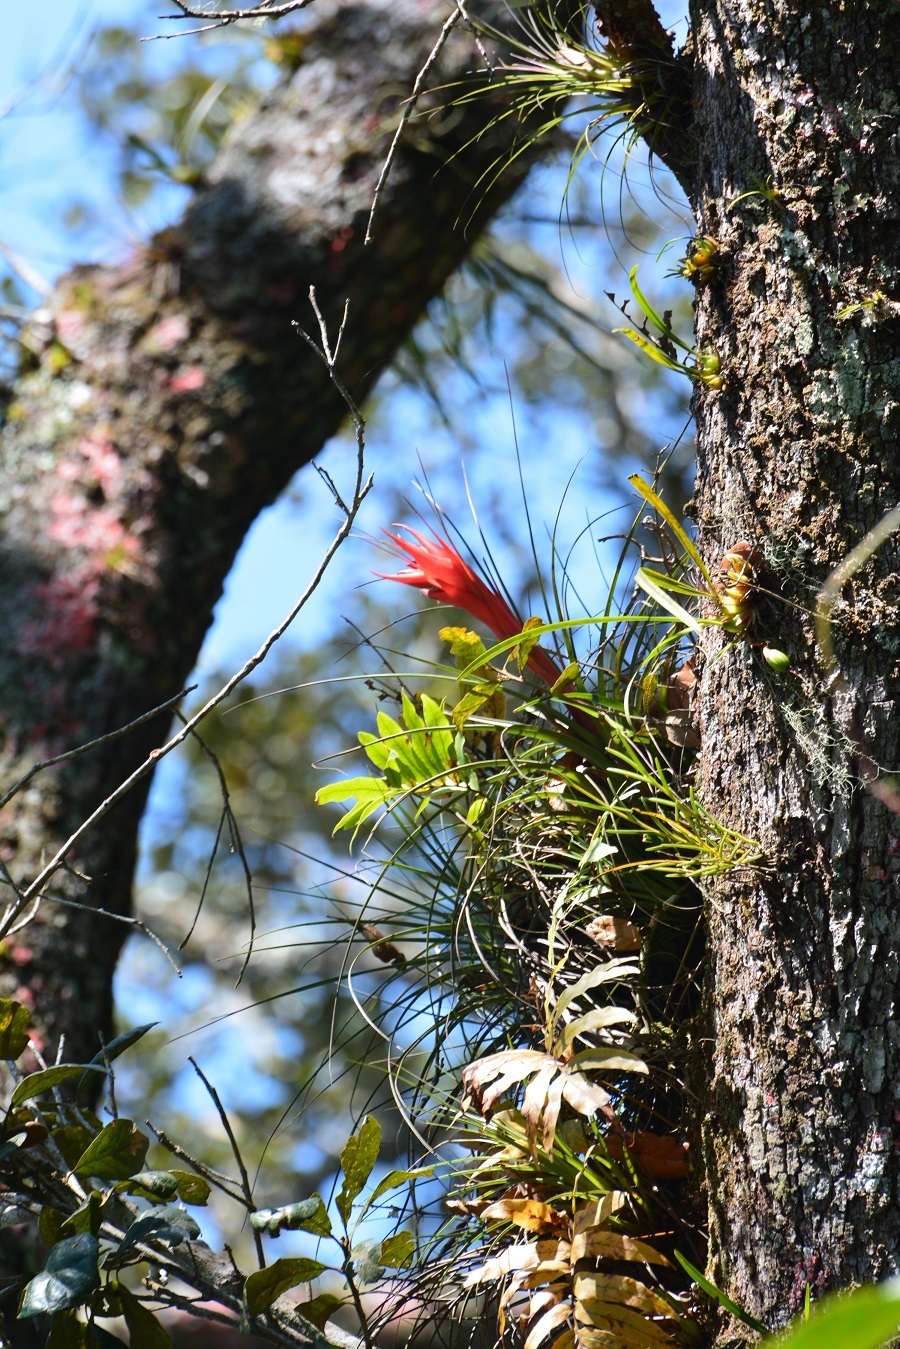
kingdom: Plantae
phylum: Tracheophyta
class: Liliopsida
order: Poales
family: Bromeliaceae
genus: Tillandsia
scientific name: Tillandsia punctulata
